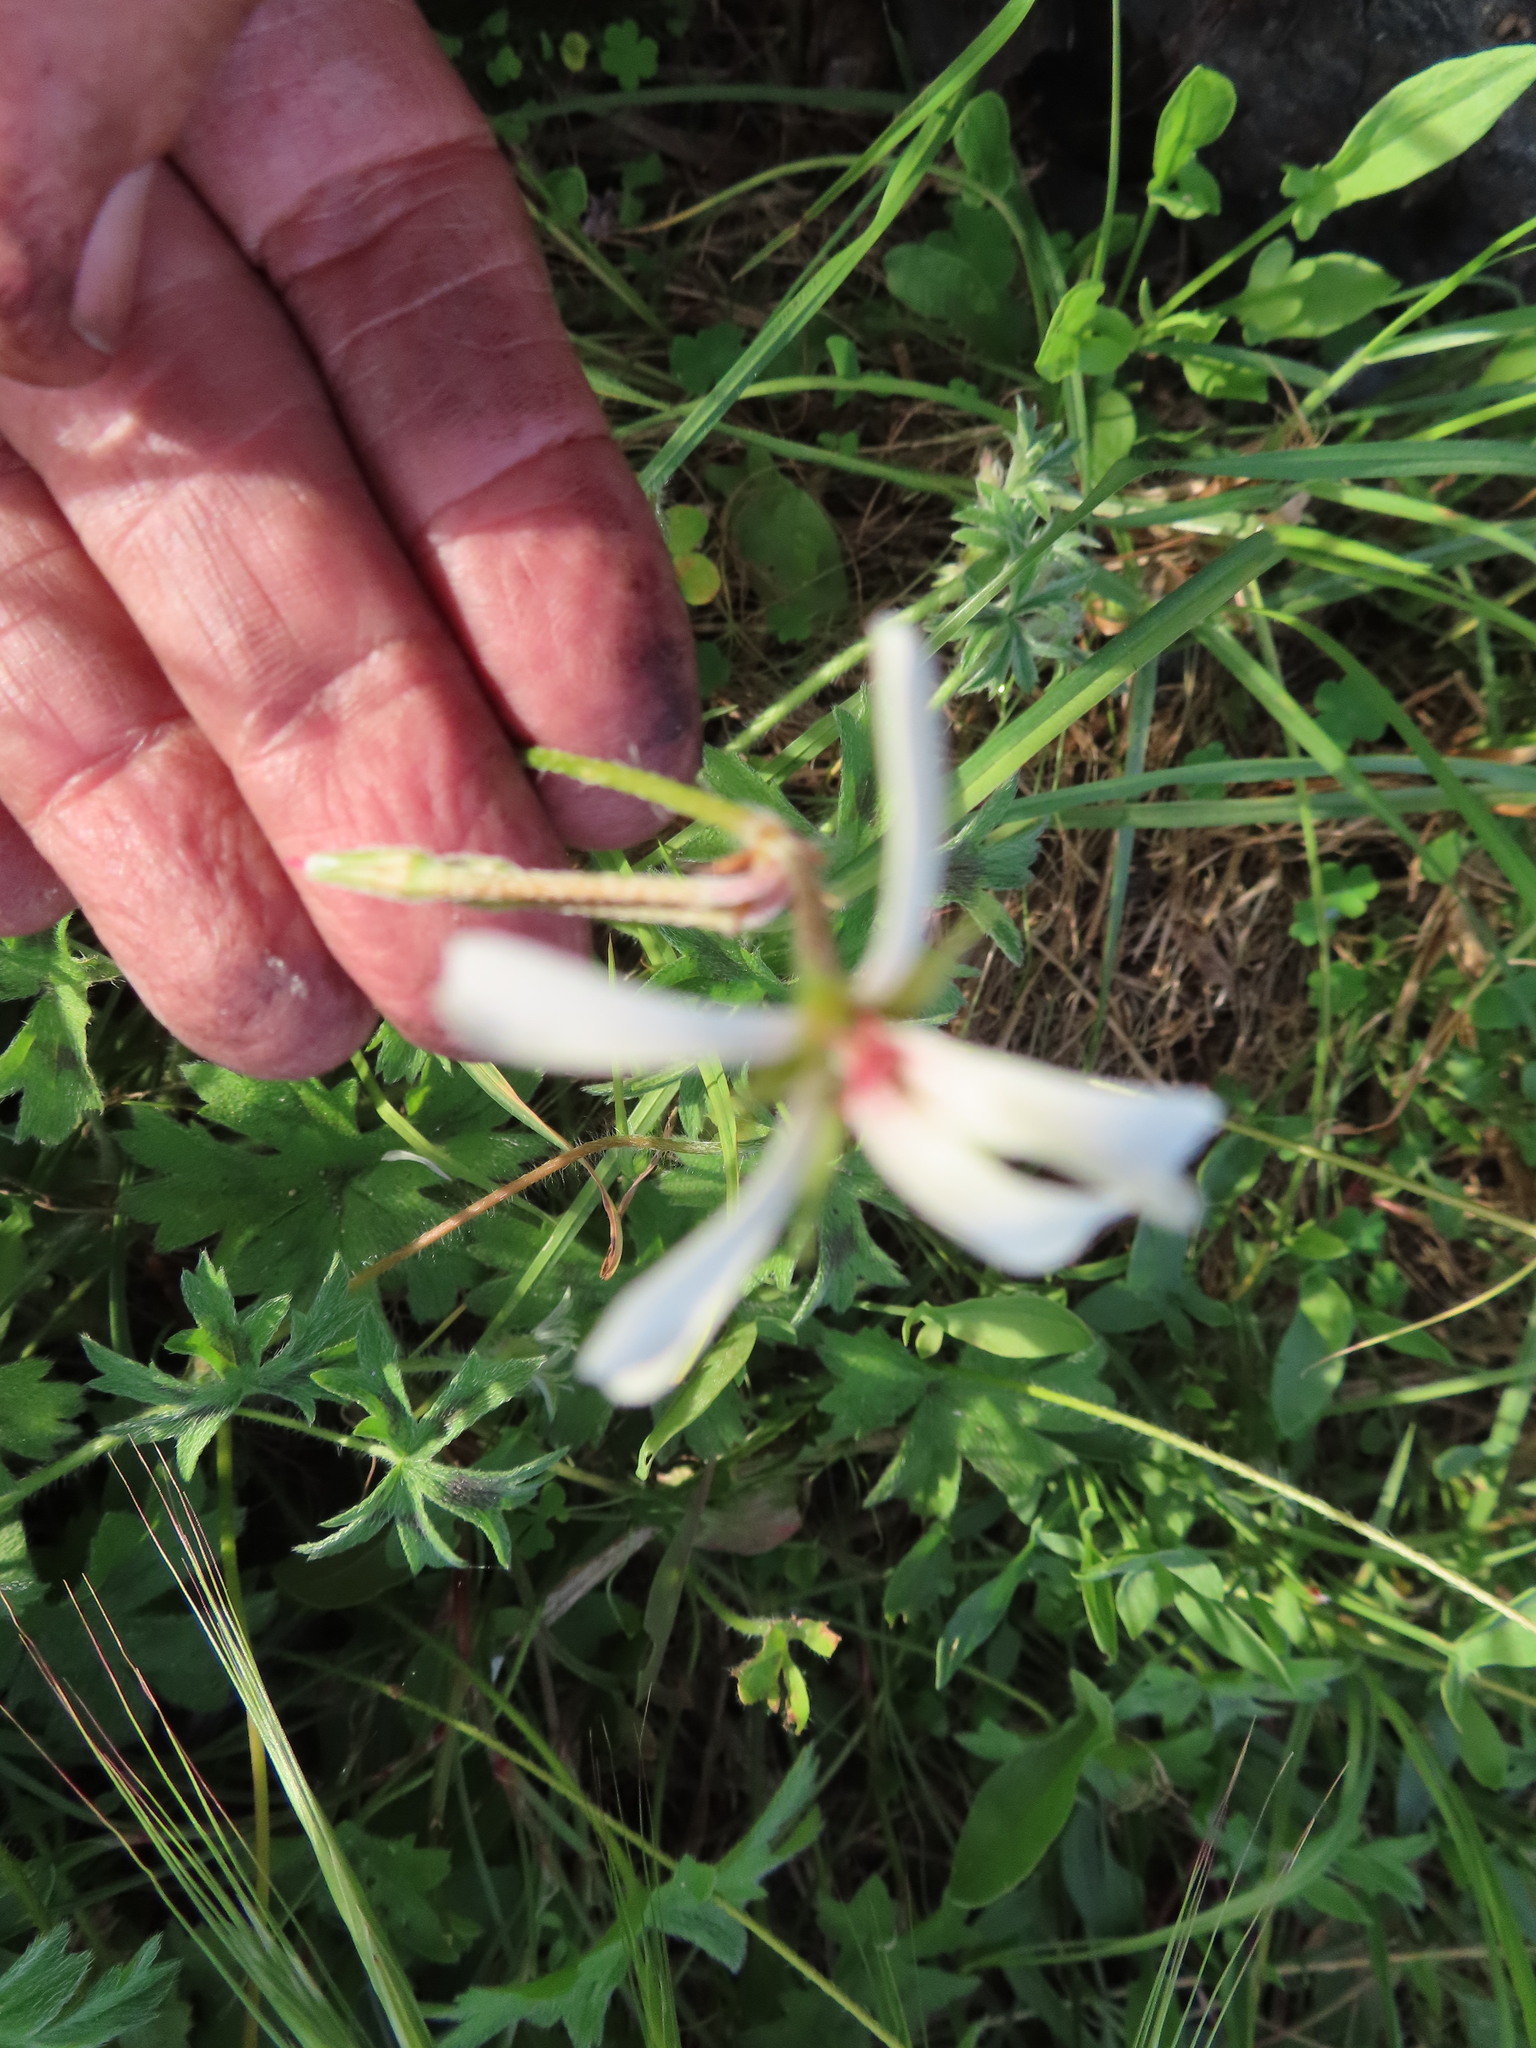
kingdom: Plantae
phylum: Tracheophyta
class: Magnoliopsida
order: Geraniales
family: Geraniaceae
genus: Pelargonium
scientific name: Pelargonium alchemilloides
